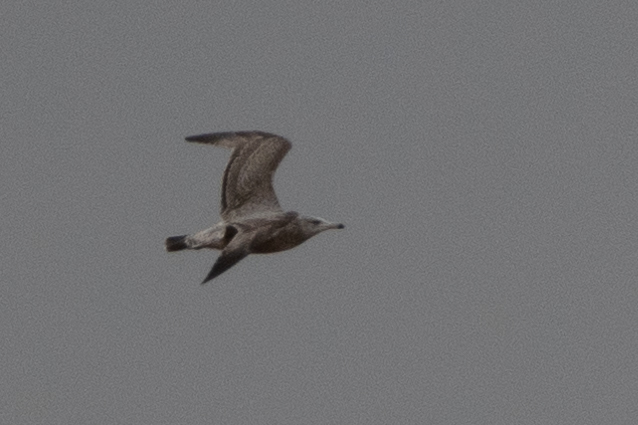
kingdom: Animalia
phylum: Chordata
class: Aves
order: Charadriiformes
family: Laridae
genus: Larus
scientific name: Larus argentatus
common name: Herring gull
